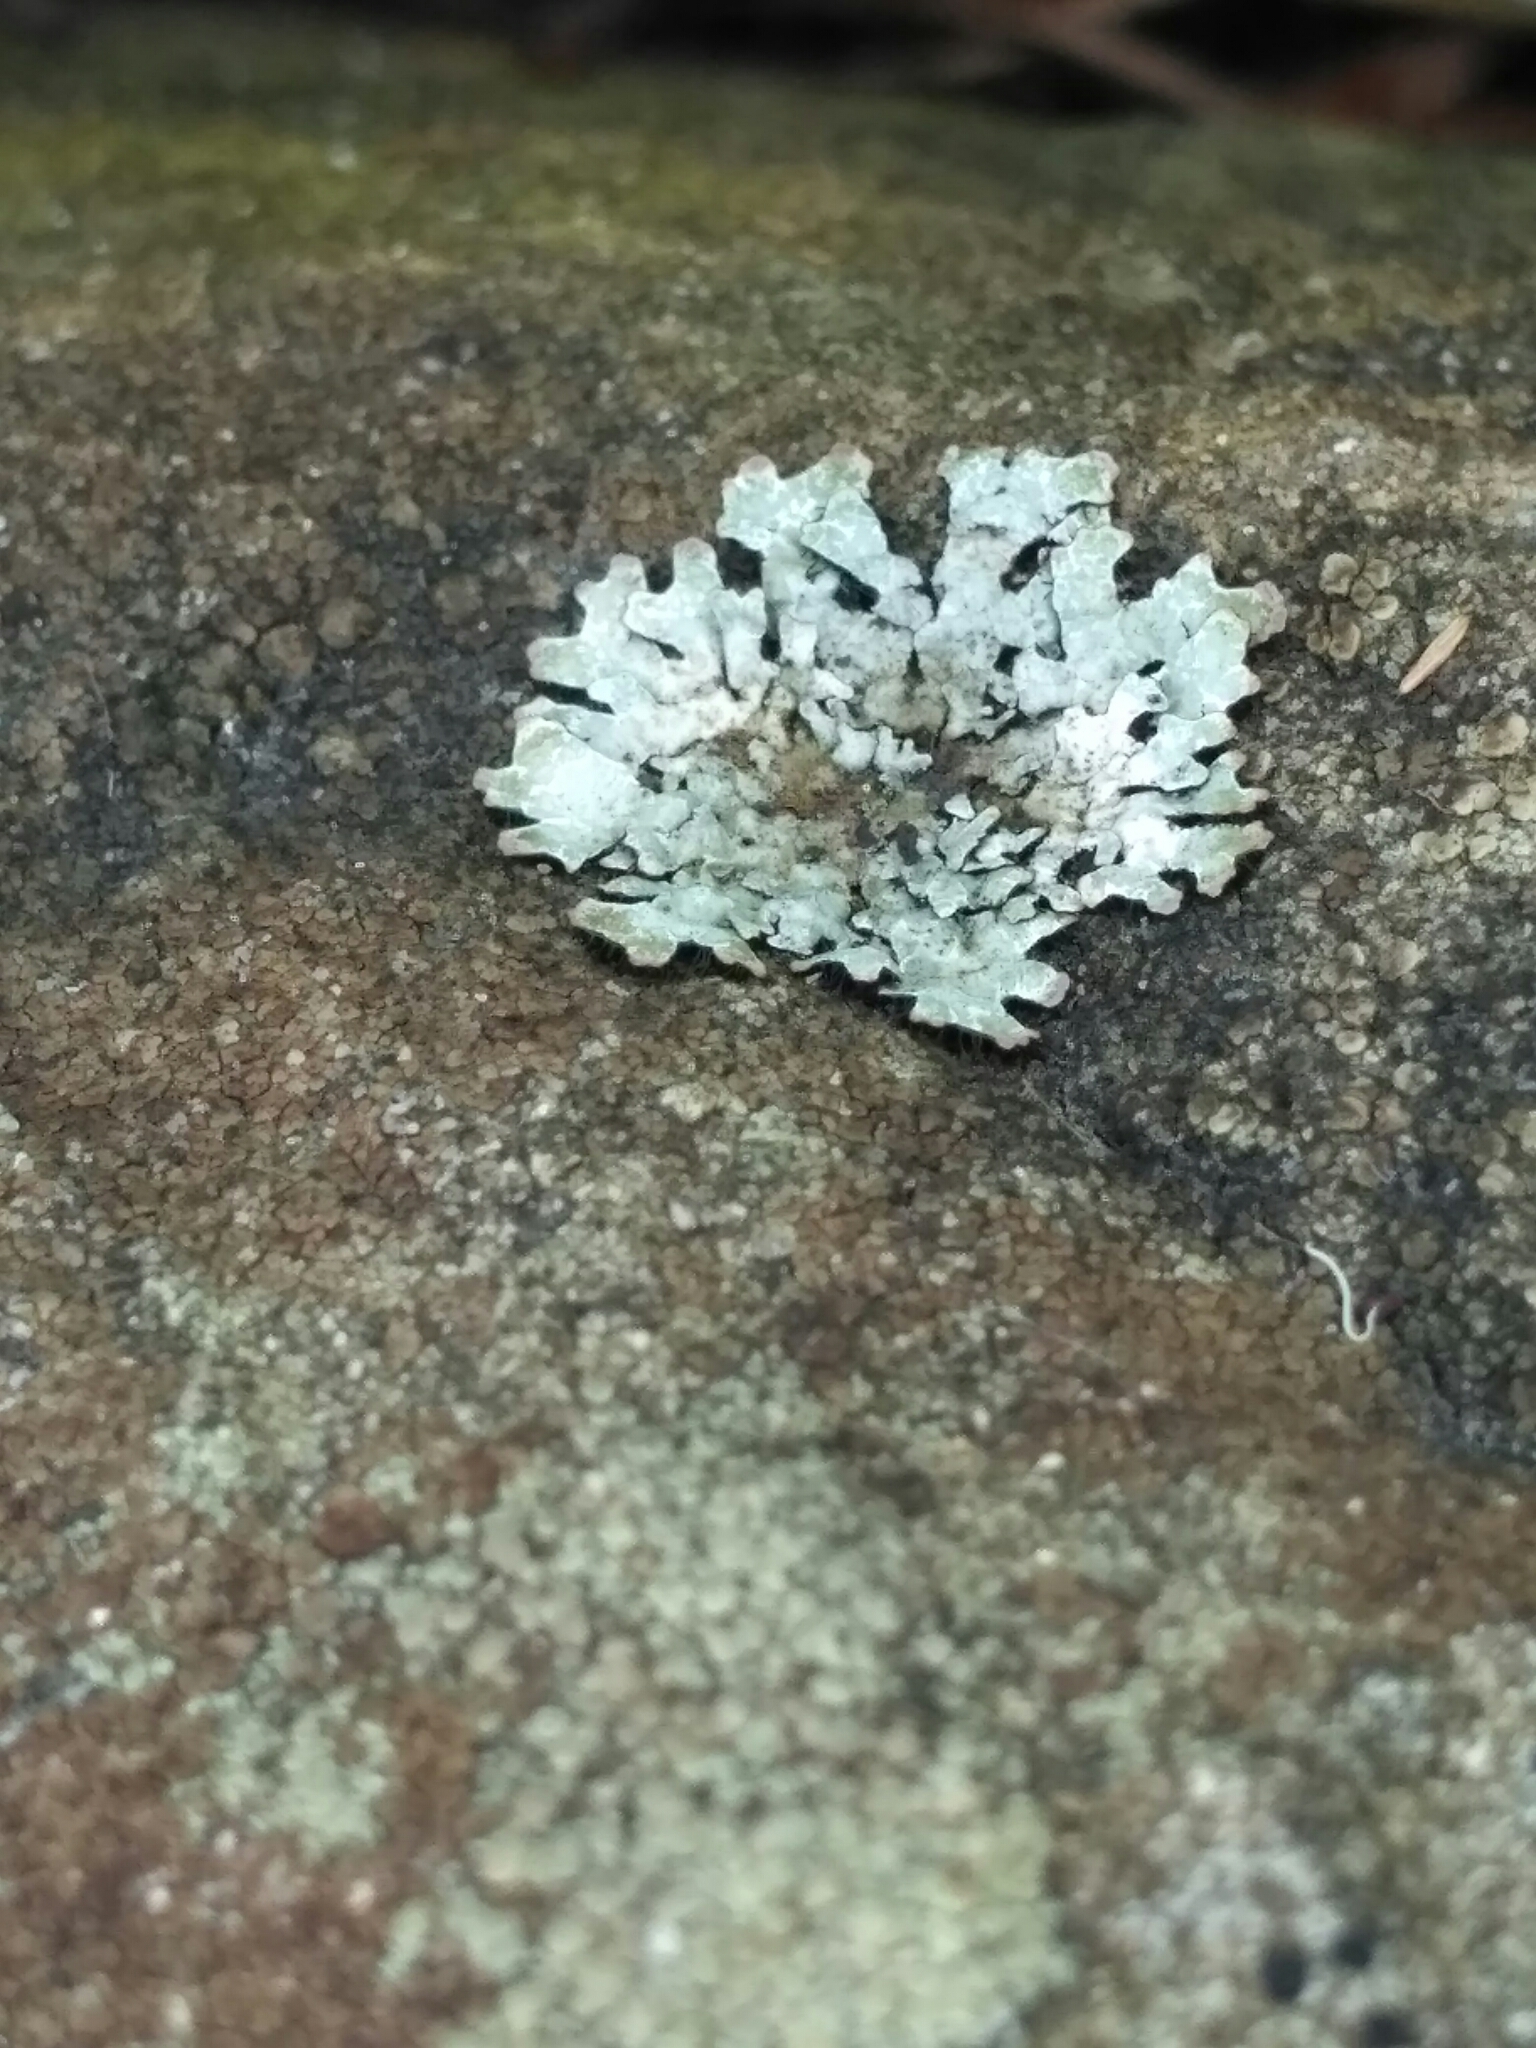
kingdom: Fungi
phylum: Ascomycota
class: Lecanoromycetes
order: Lecanorales
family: Parmeliaceae
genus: Parmelia
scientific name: Parmelia sulcata
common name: Netted shield lichen
